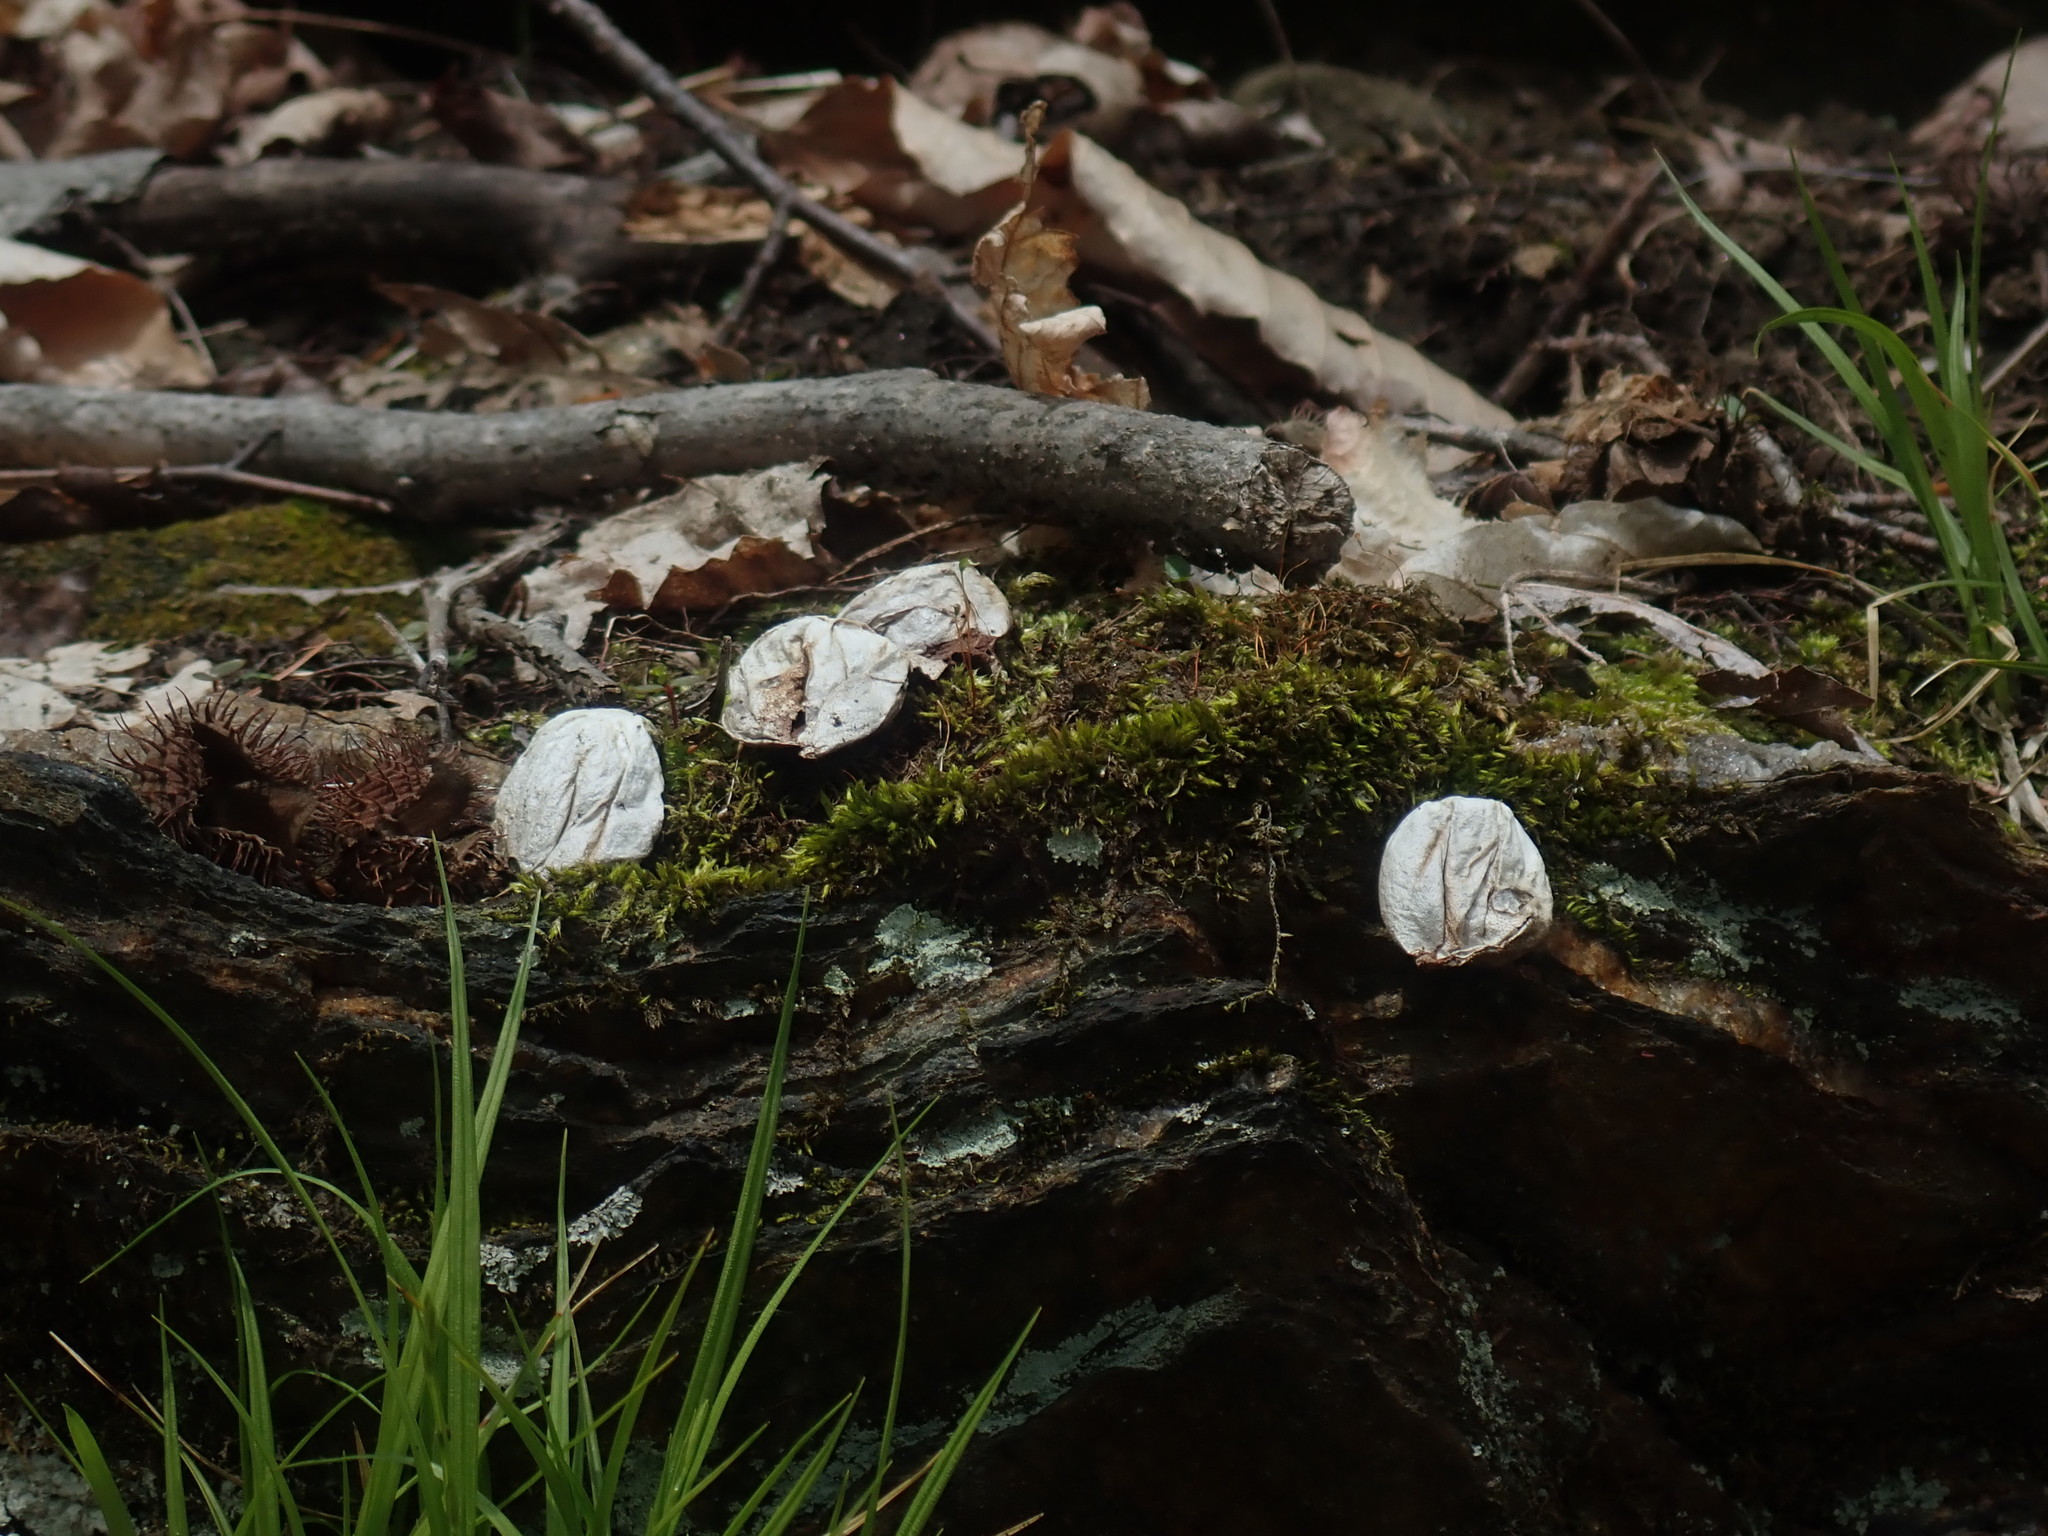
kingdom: Fungi
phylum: Basidiomycota
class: Agaricomycetes
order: Agaricales
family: Lycoperdaceae
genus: Apioperdon
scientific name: Apioperdon pyriforme
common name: Pear-shaped puffball
